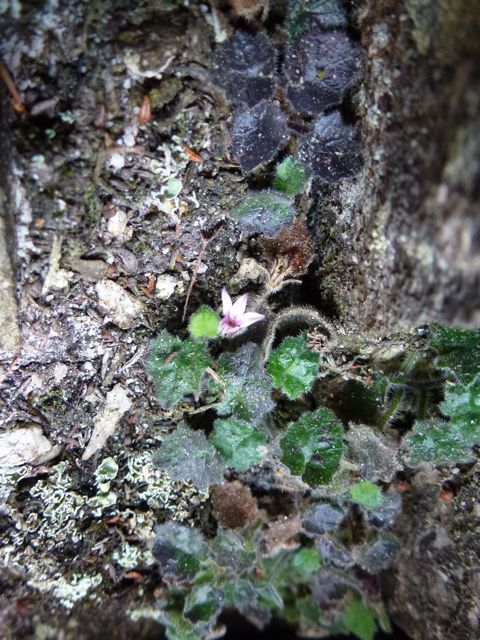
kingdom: Plantae
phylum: Tracheophyta
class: Magnoliopsida
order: Asterales
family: Campanulaceae
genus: Lobelia
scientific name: Lobelia ardisiandroides
